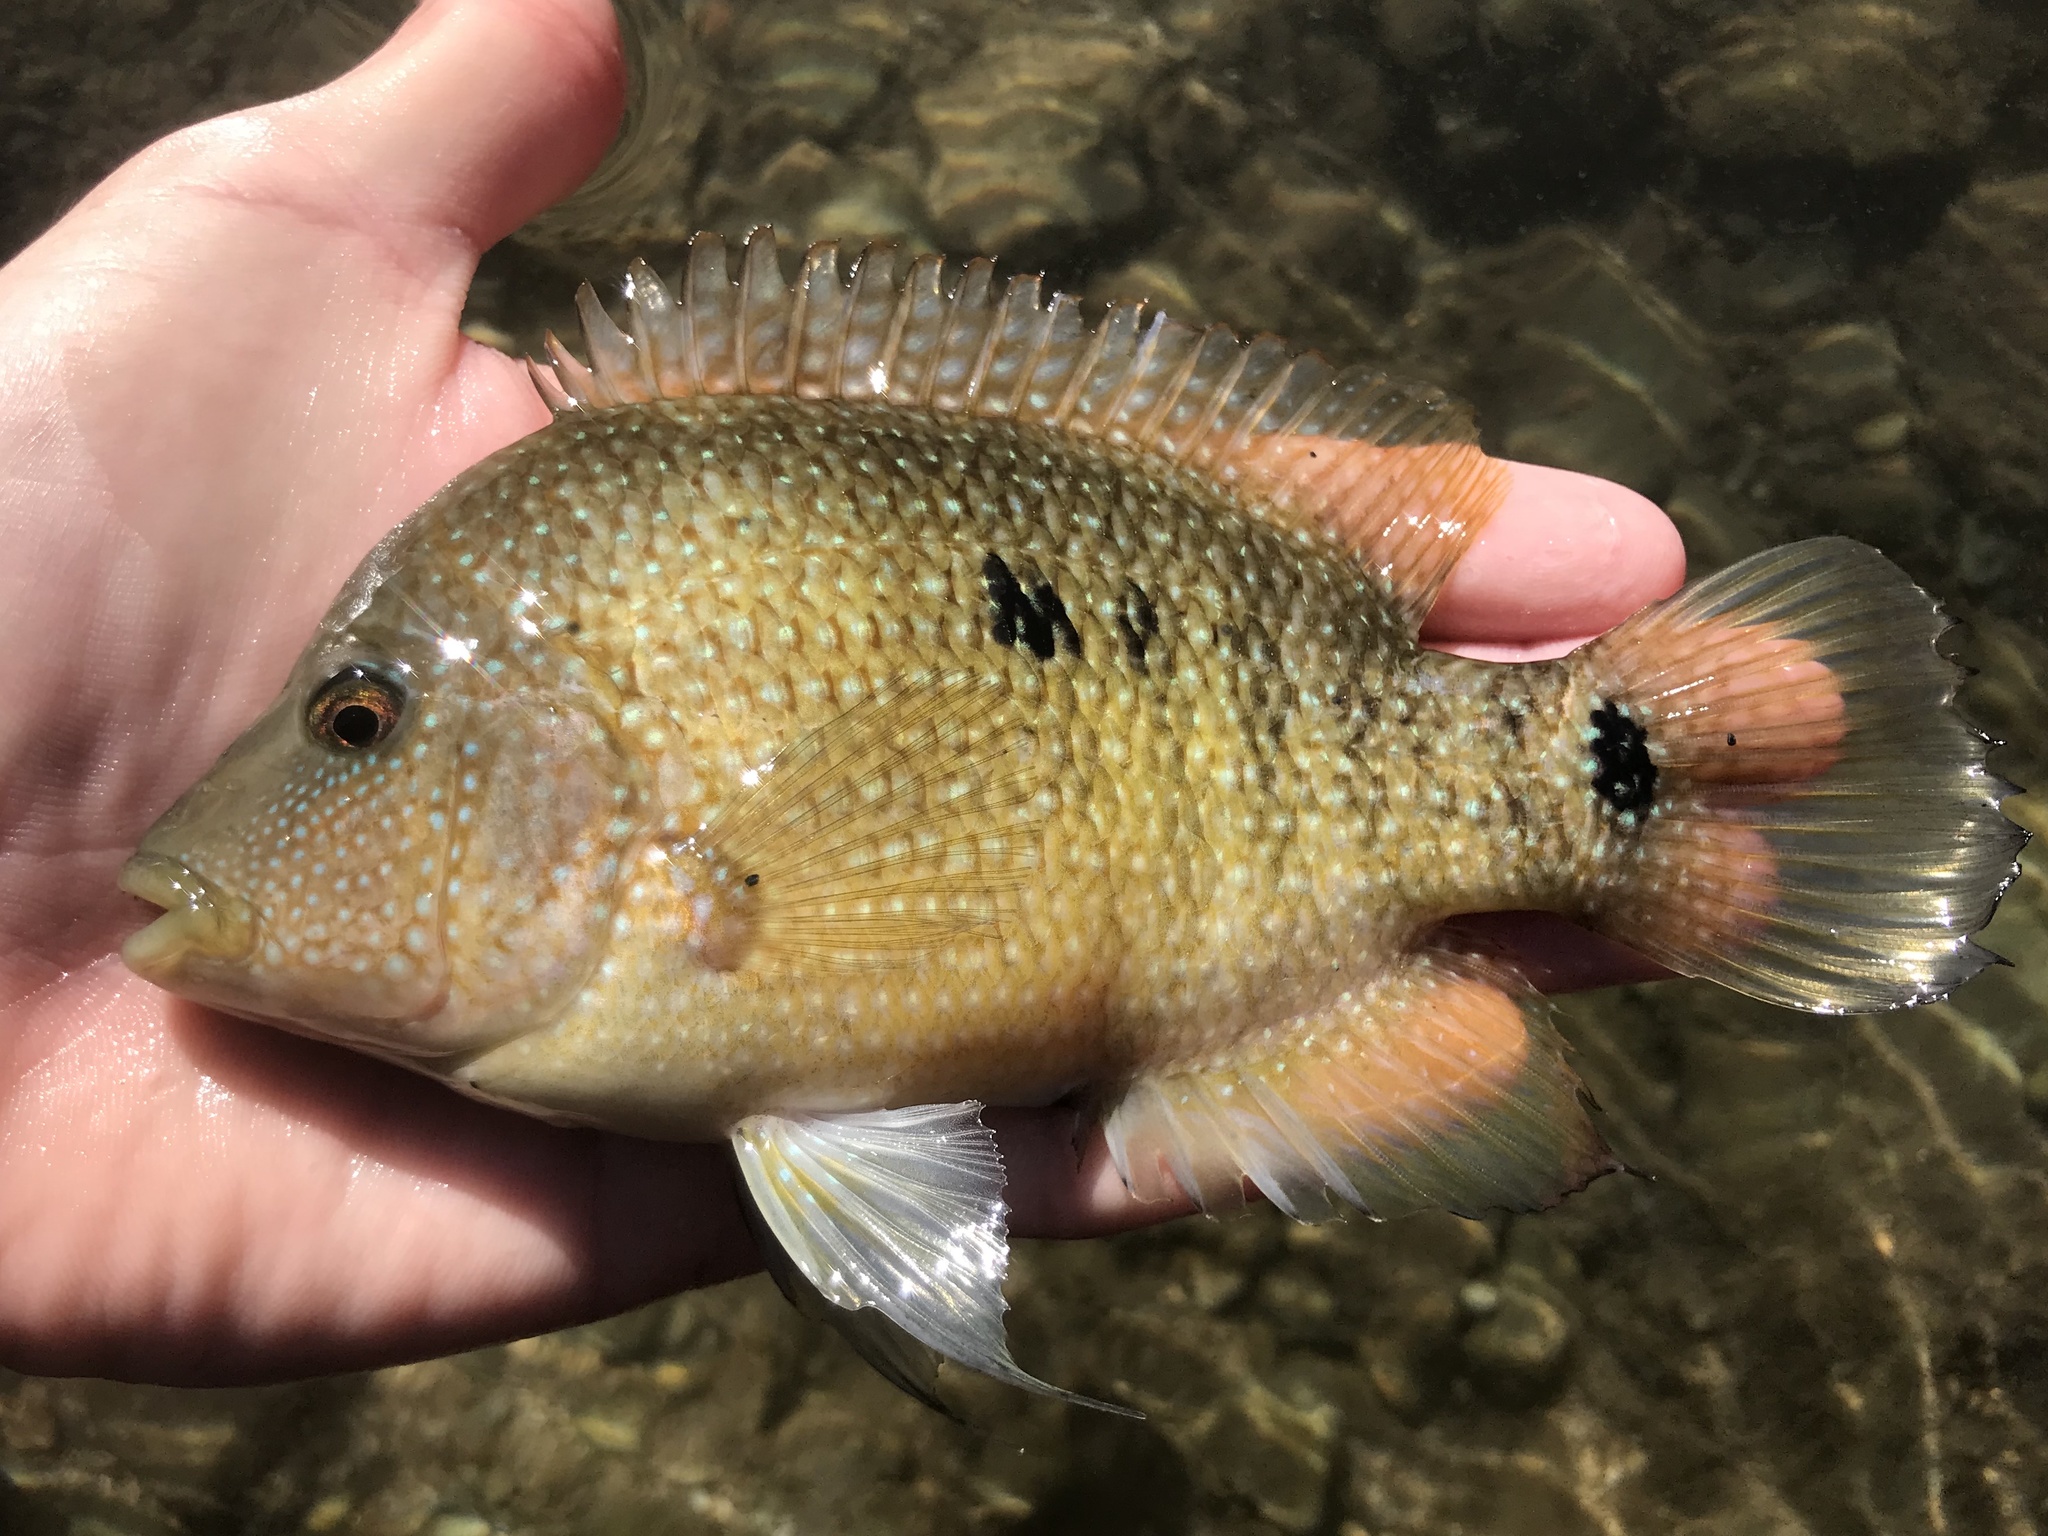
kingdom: Animalia
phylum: Chordata
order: Perciformes
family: Cichlidae
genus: Herichthys
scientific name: Herichthys cyanoguttatus
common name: Rio grande cichlid
